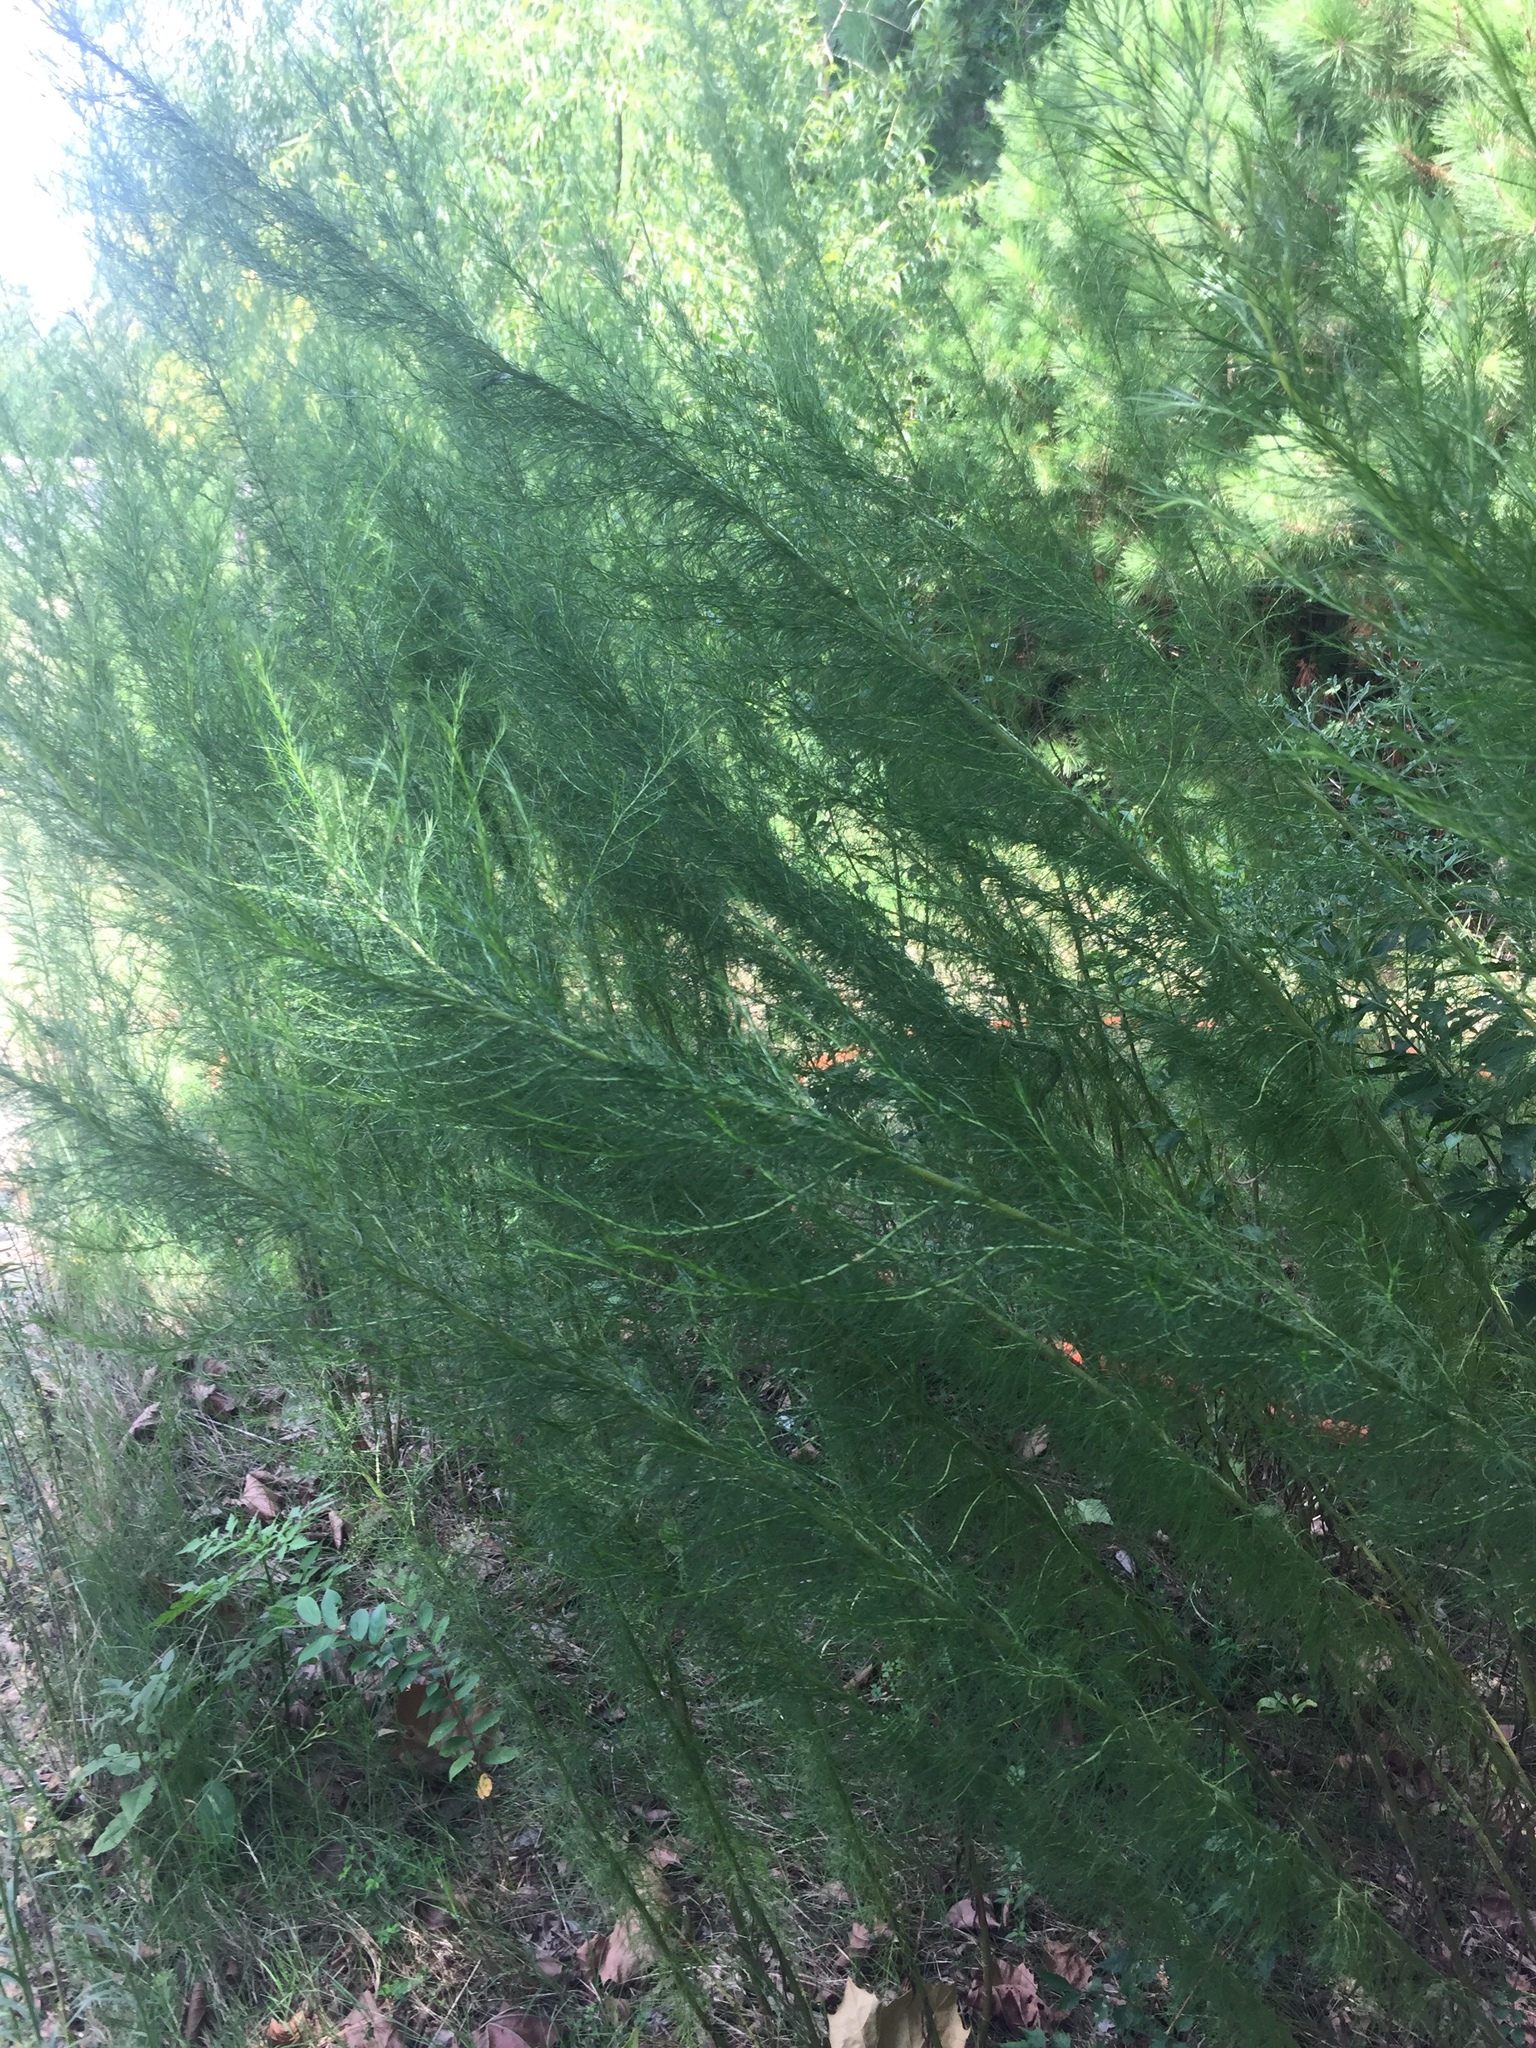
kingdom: Plantae
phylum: Tracheophyta
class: Magnoliopsida
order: Asterales
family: Asteraceae
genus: Eupatorium
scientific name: Eupatorium capillifolium
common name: Dog-fennel
